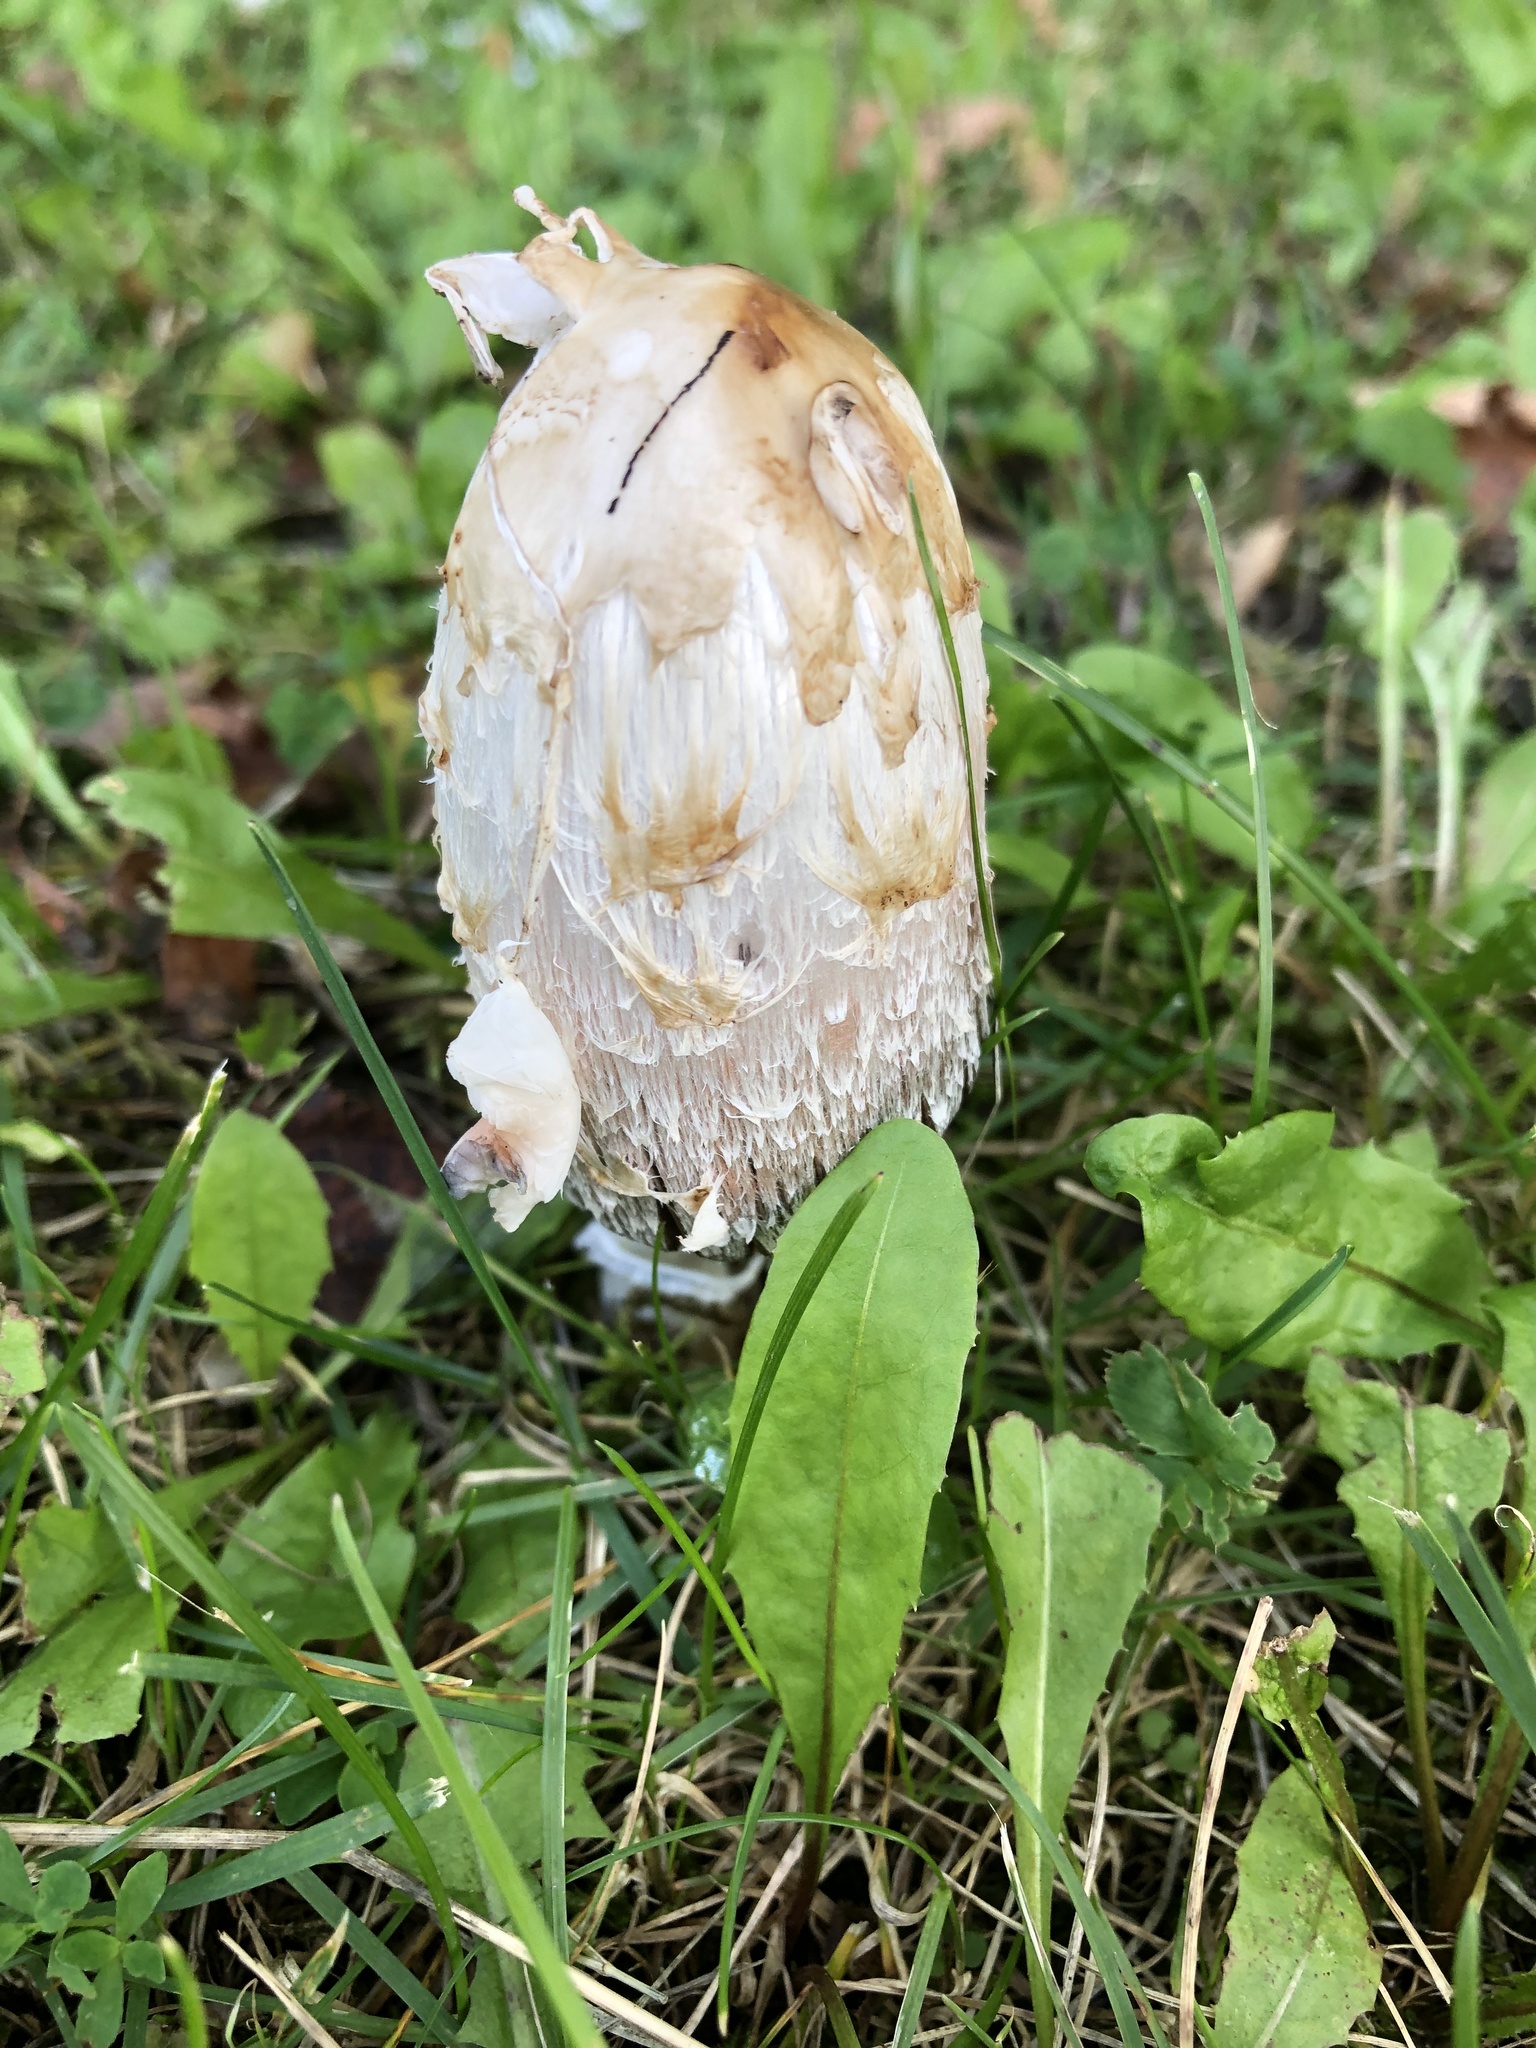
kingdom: Fungi
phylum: Basidiomycota
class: Agaricomycetes
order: Agaricales
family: Agaricaceae
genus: Coprinus
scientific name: Coprinus comatus
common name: Lawyer's wig
